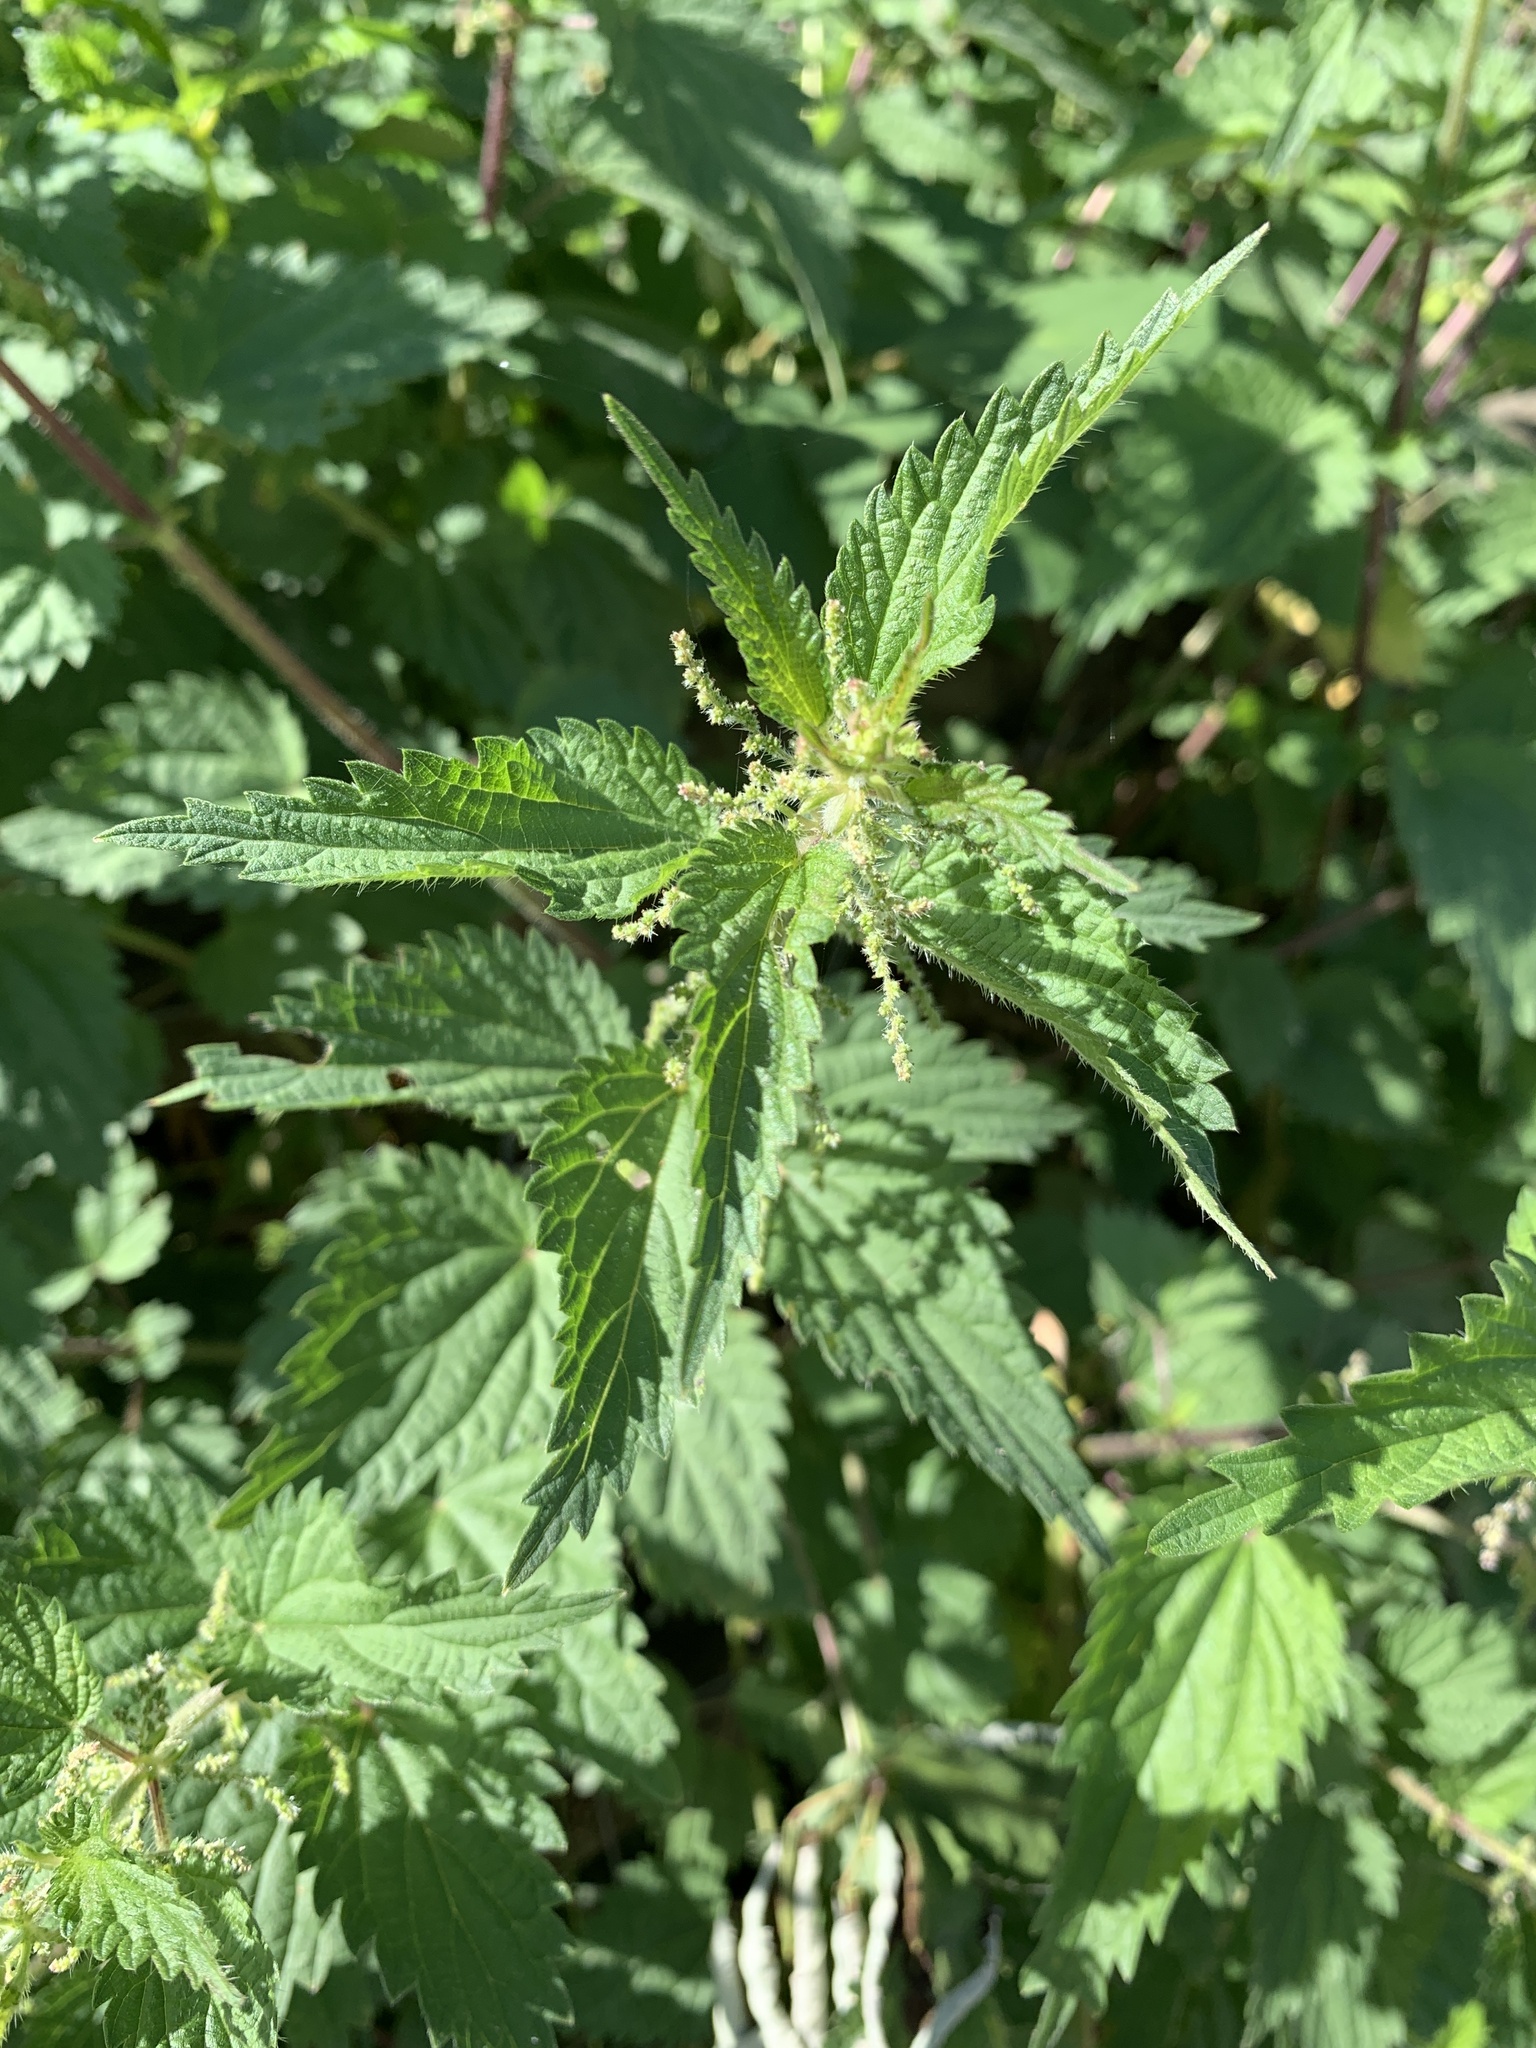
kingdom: Plantae
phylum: Tracheophyta
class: Magnoliopsida
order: Rosales
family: Urticaceae
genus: Urtica
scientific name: Urtica dioica
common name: Common nettle
